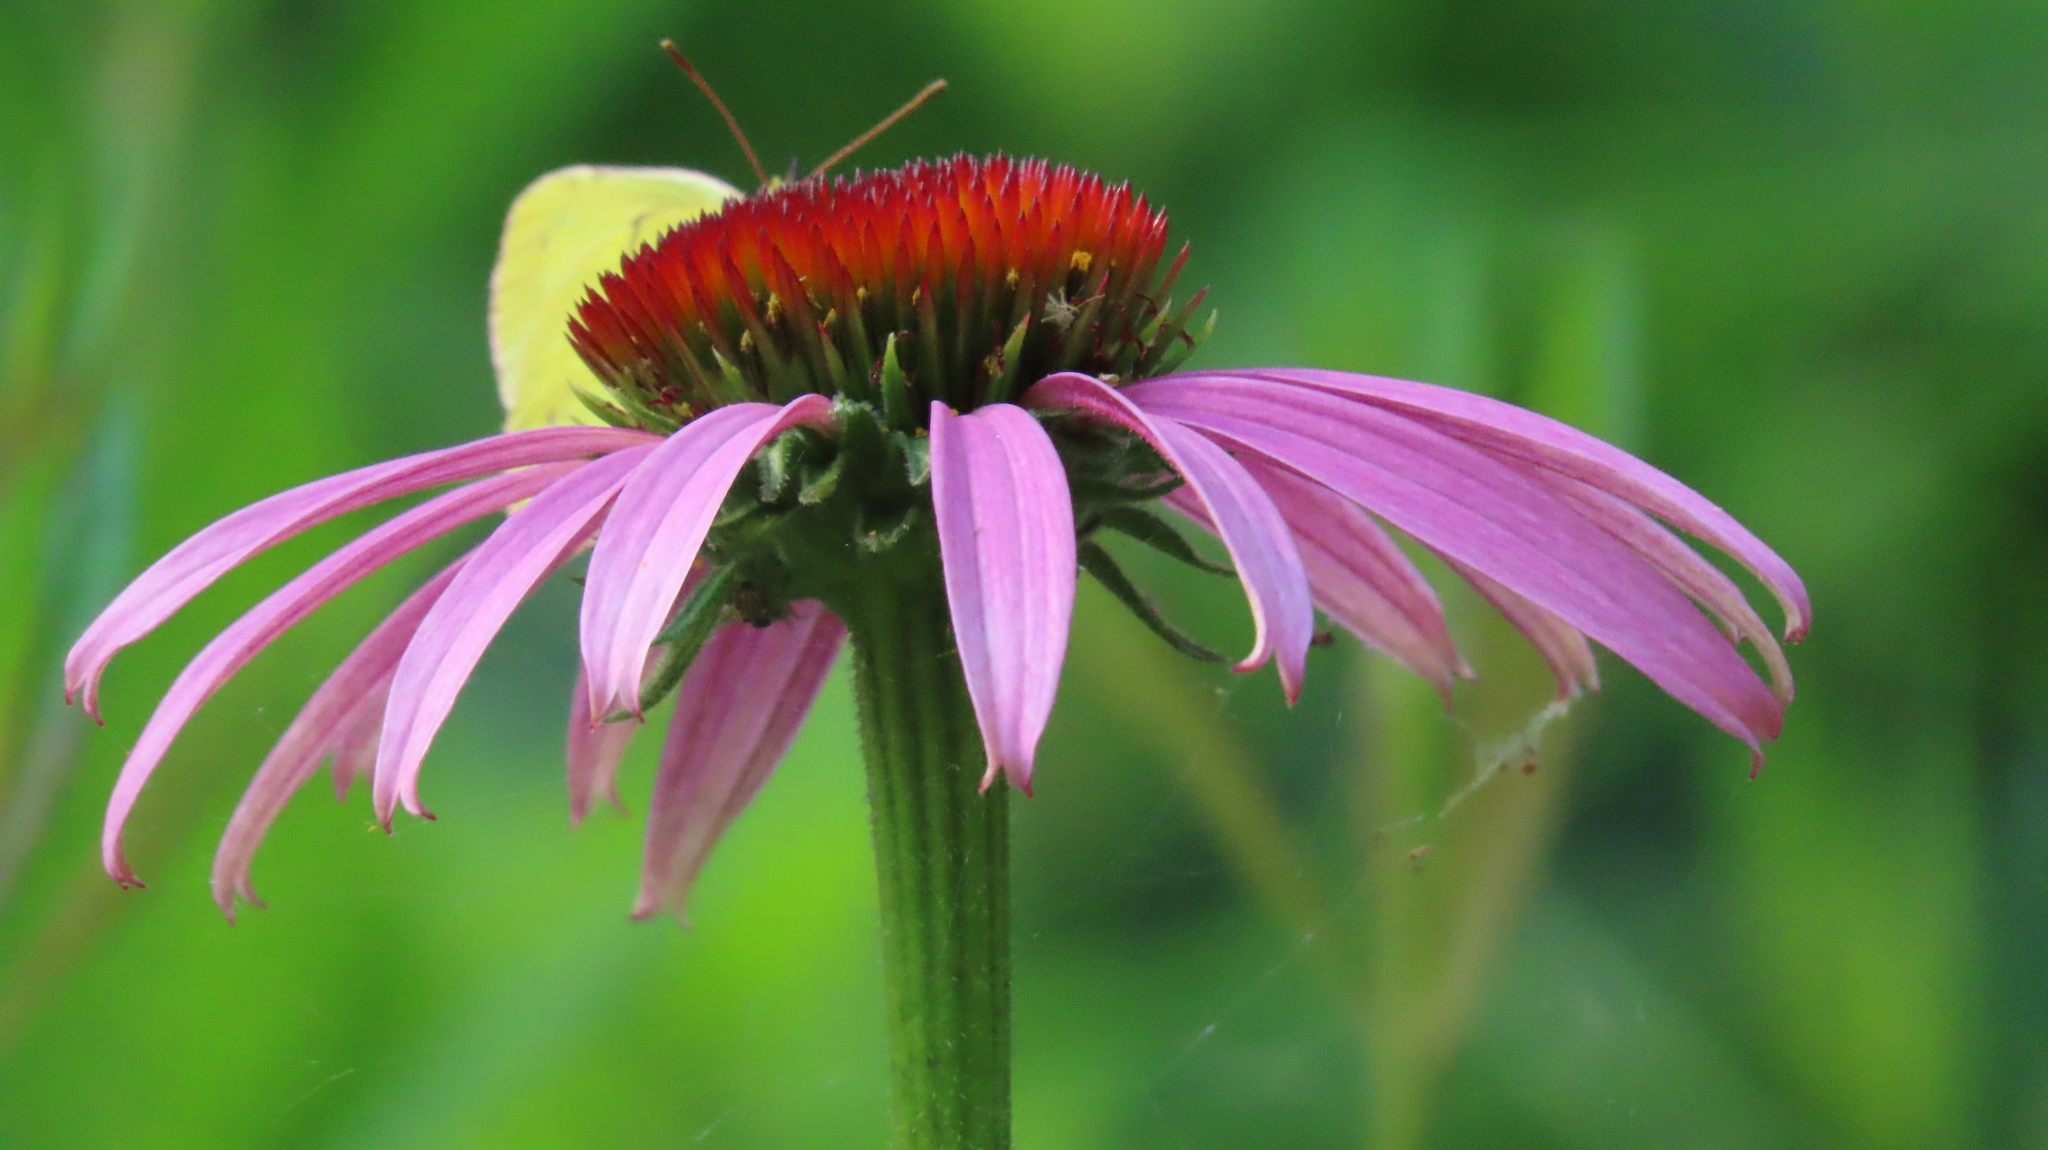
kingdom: Plantae
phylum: Tracheophyta
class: Magnoliopsida
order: Asterales
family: Asteraceae
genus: Echinacea
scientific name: Echinacea purpurea
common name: Broad-leaved purple coneflower
